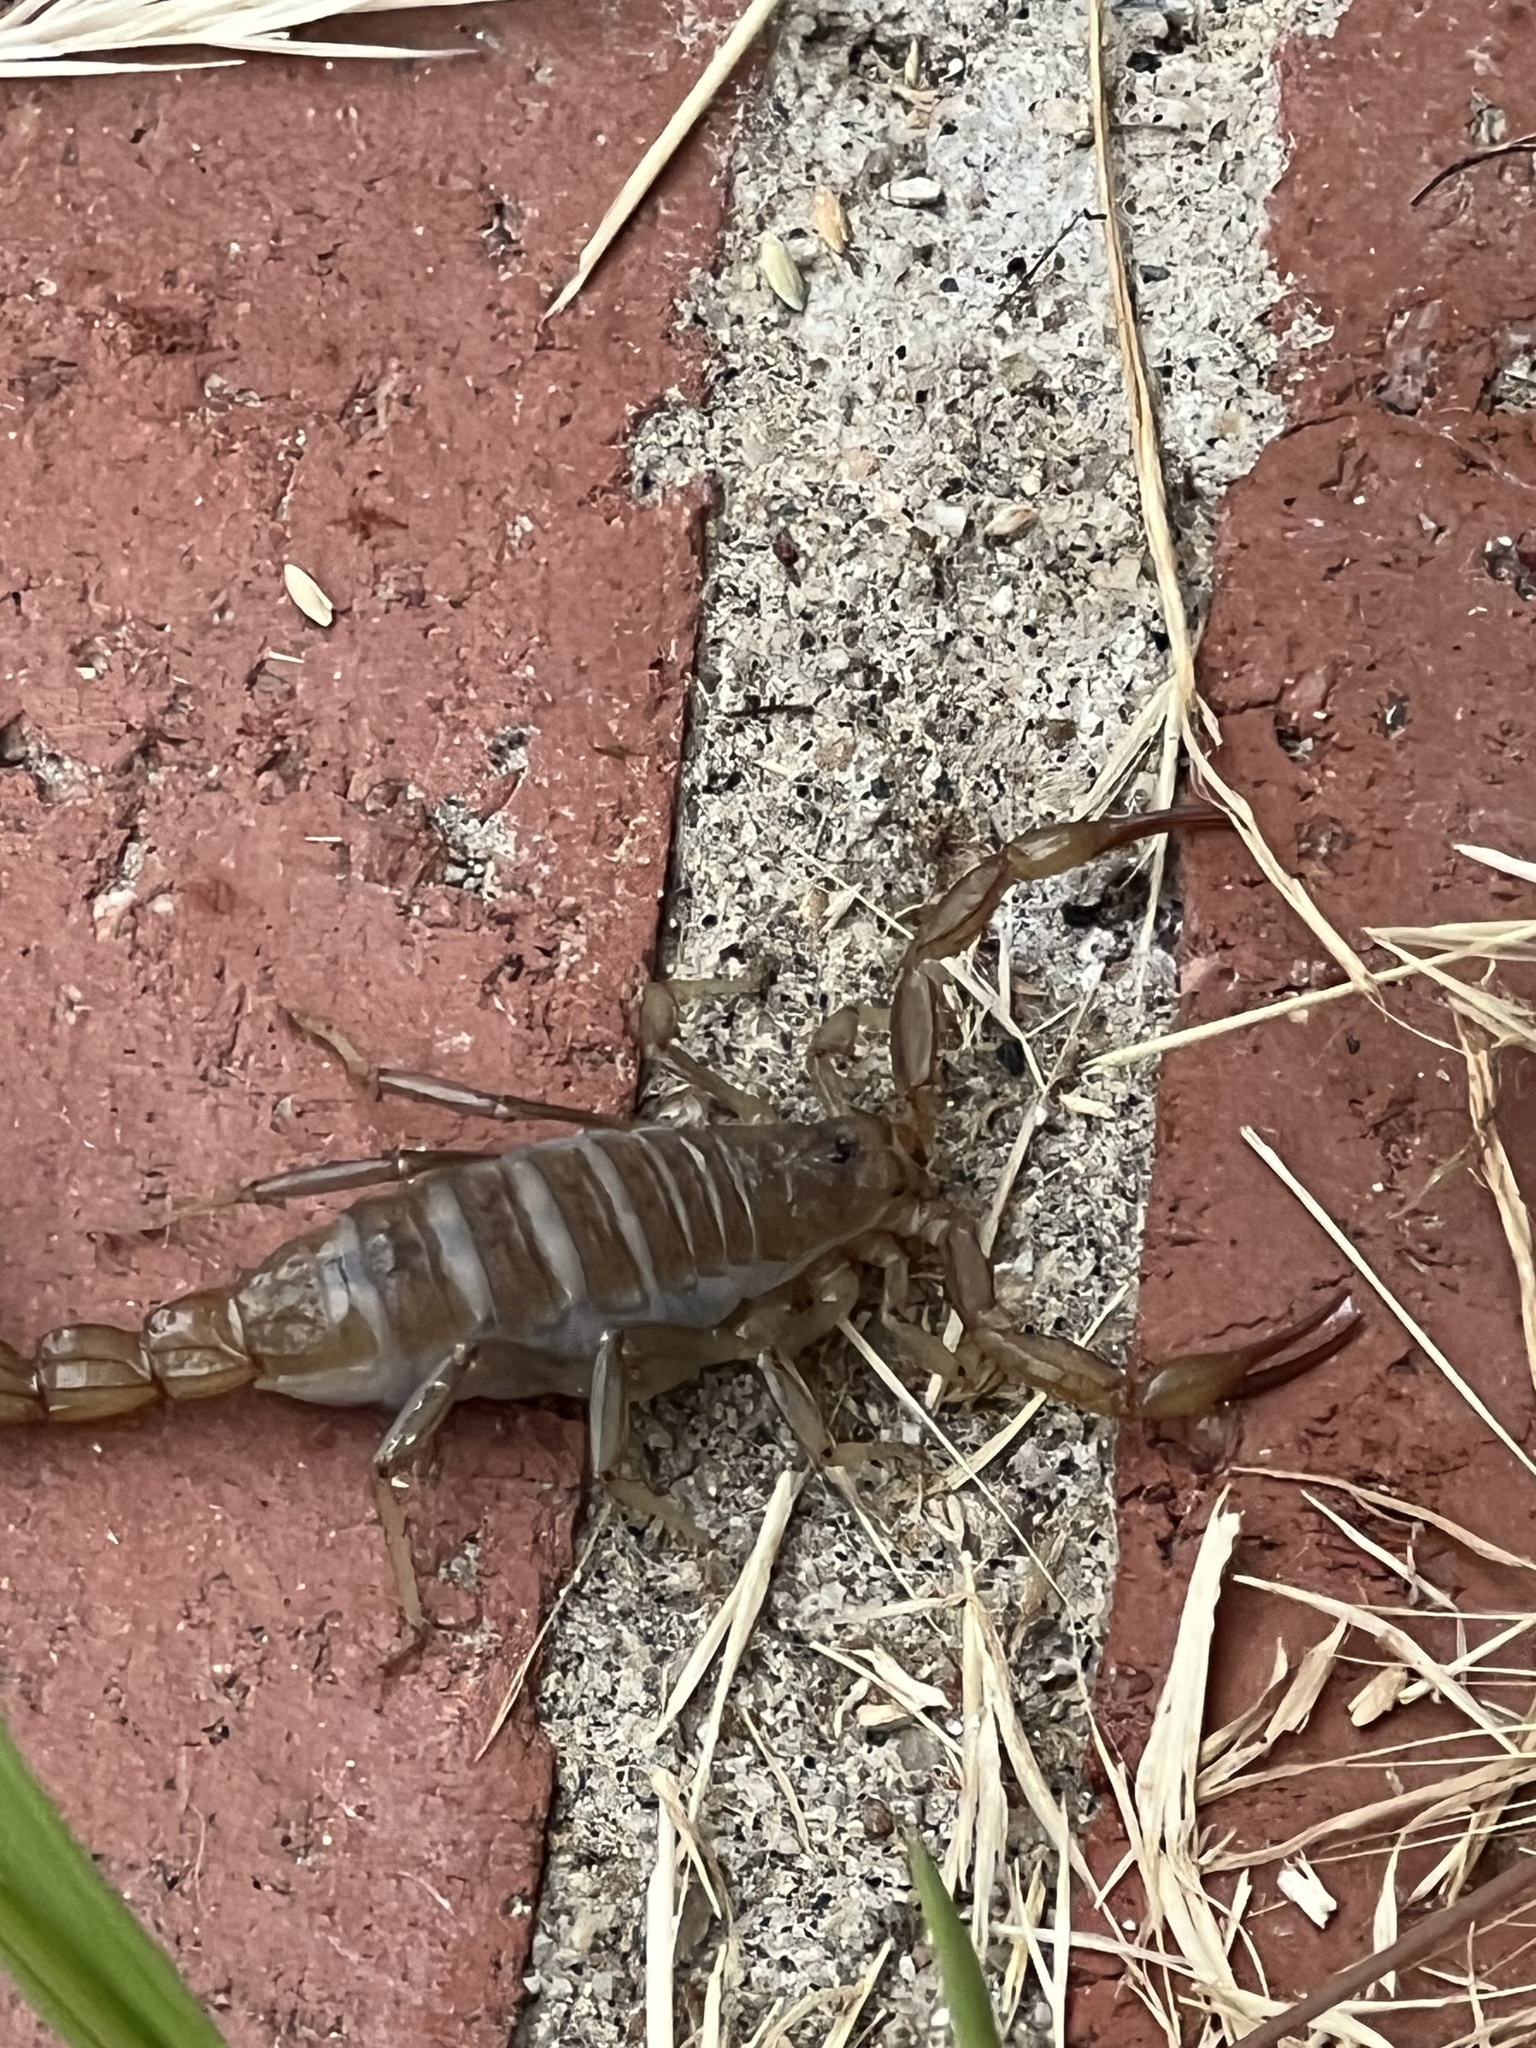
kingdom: Animalia
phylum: Arthropoda
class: Arachnida
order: Scorpiones
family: Vaejovidae
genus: Paravaejovis
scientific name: Paravaejovis puritanus
